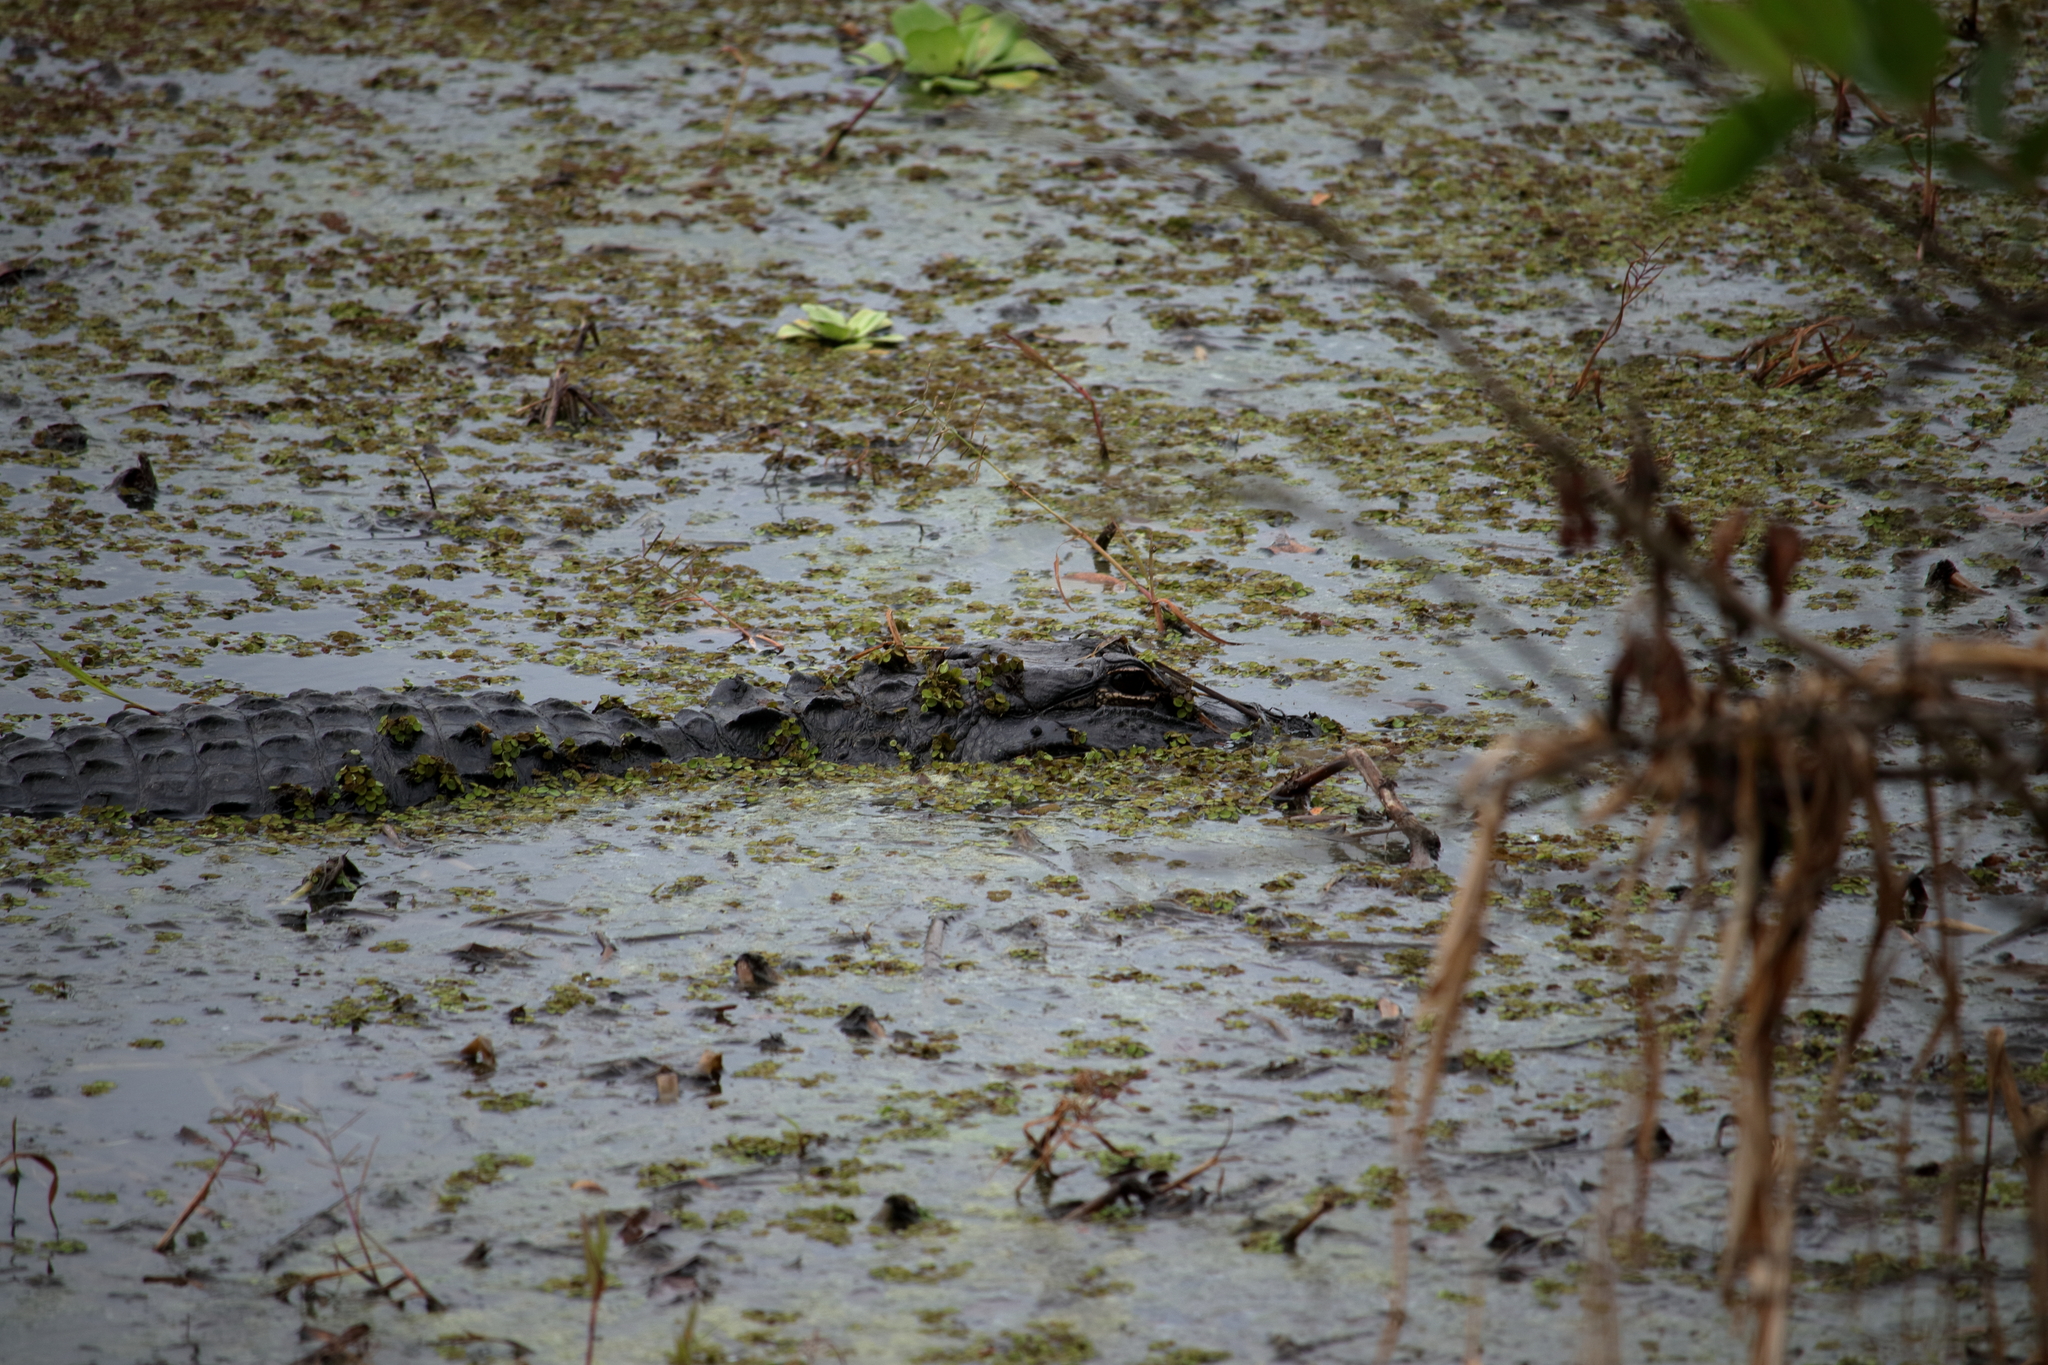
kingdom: Animalia
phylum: Chordata
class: Crocodylia
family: Alligatoridae
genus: Alligator
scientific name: Alligator mississippiensis
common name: American alligator
